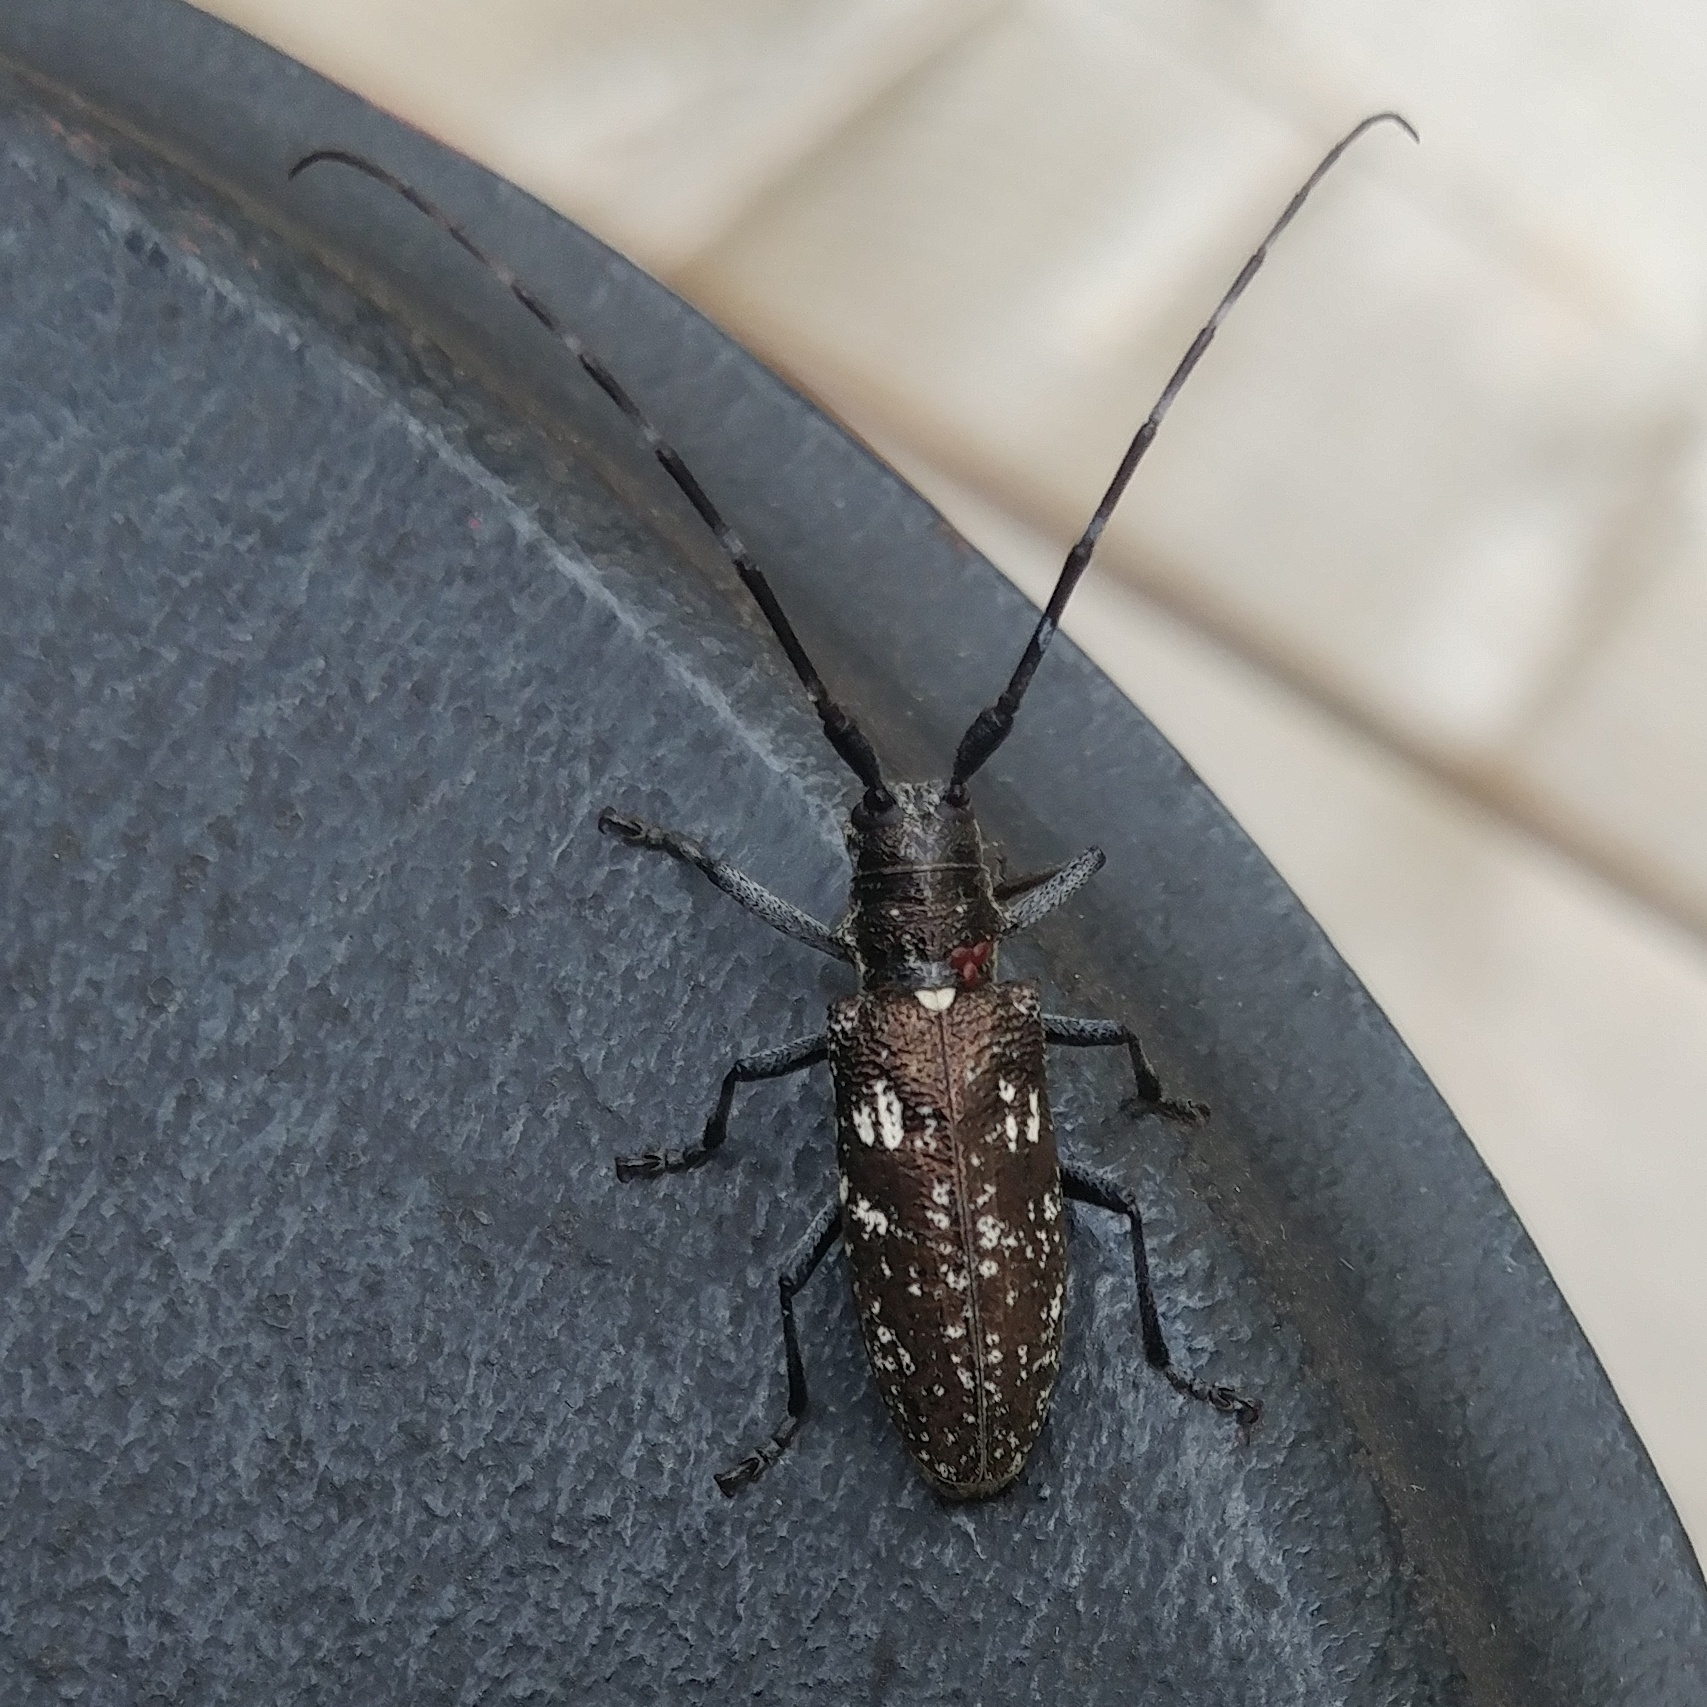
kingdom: Animalia
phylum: Arthropoda
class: Insecta
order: Coleoptera
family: Cerambycidae
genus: Monochamus
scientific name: Monochamus scutellatus
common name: White-spotted sawyer beetle
